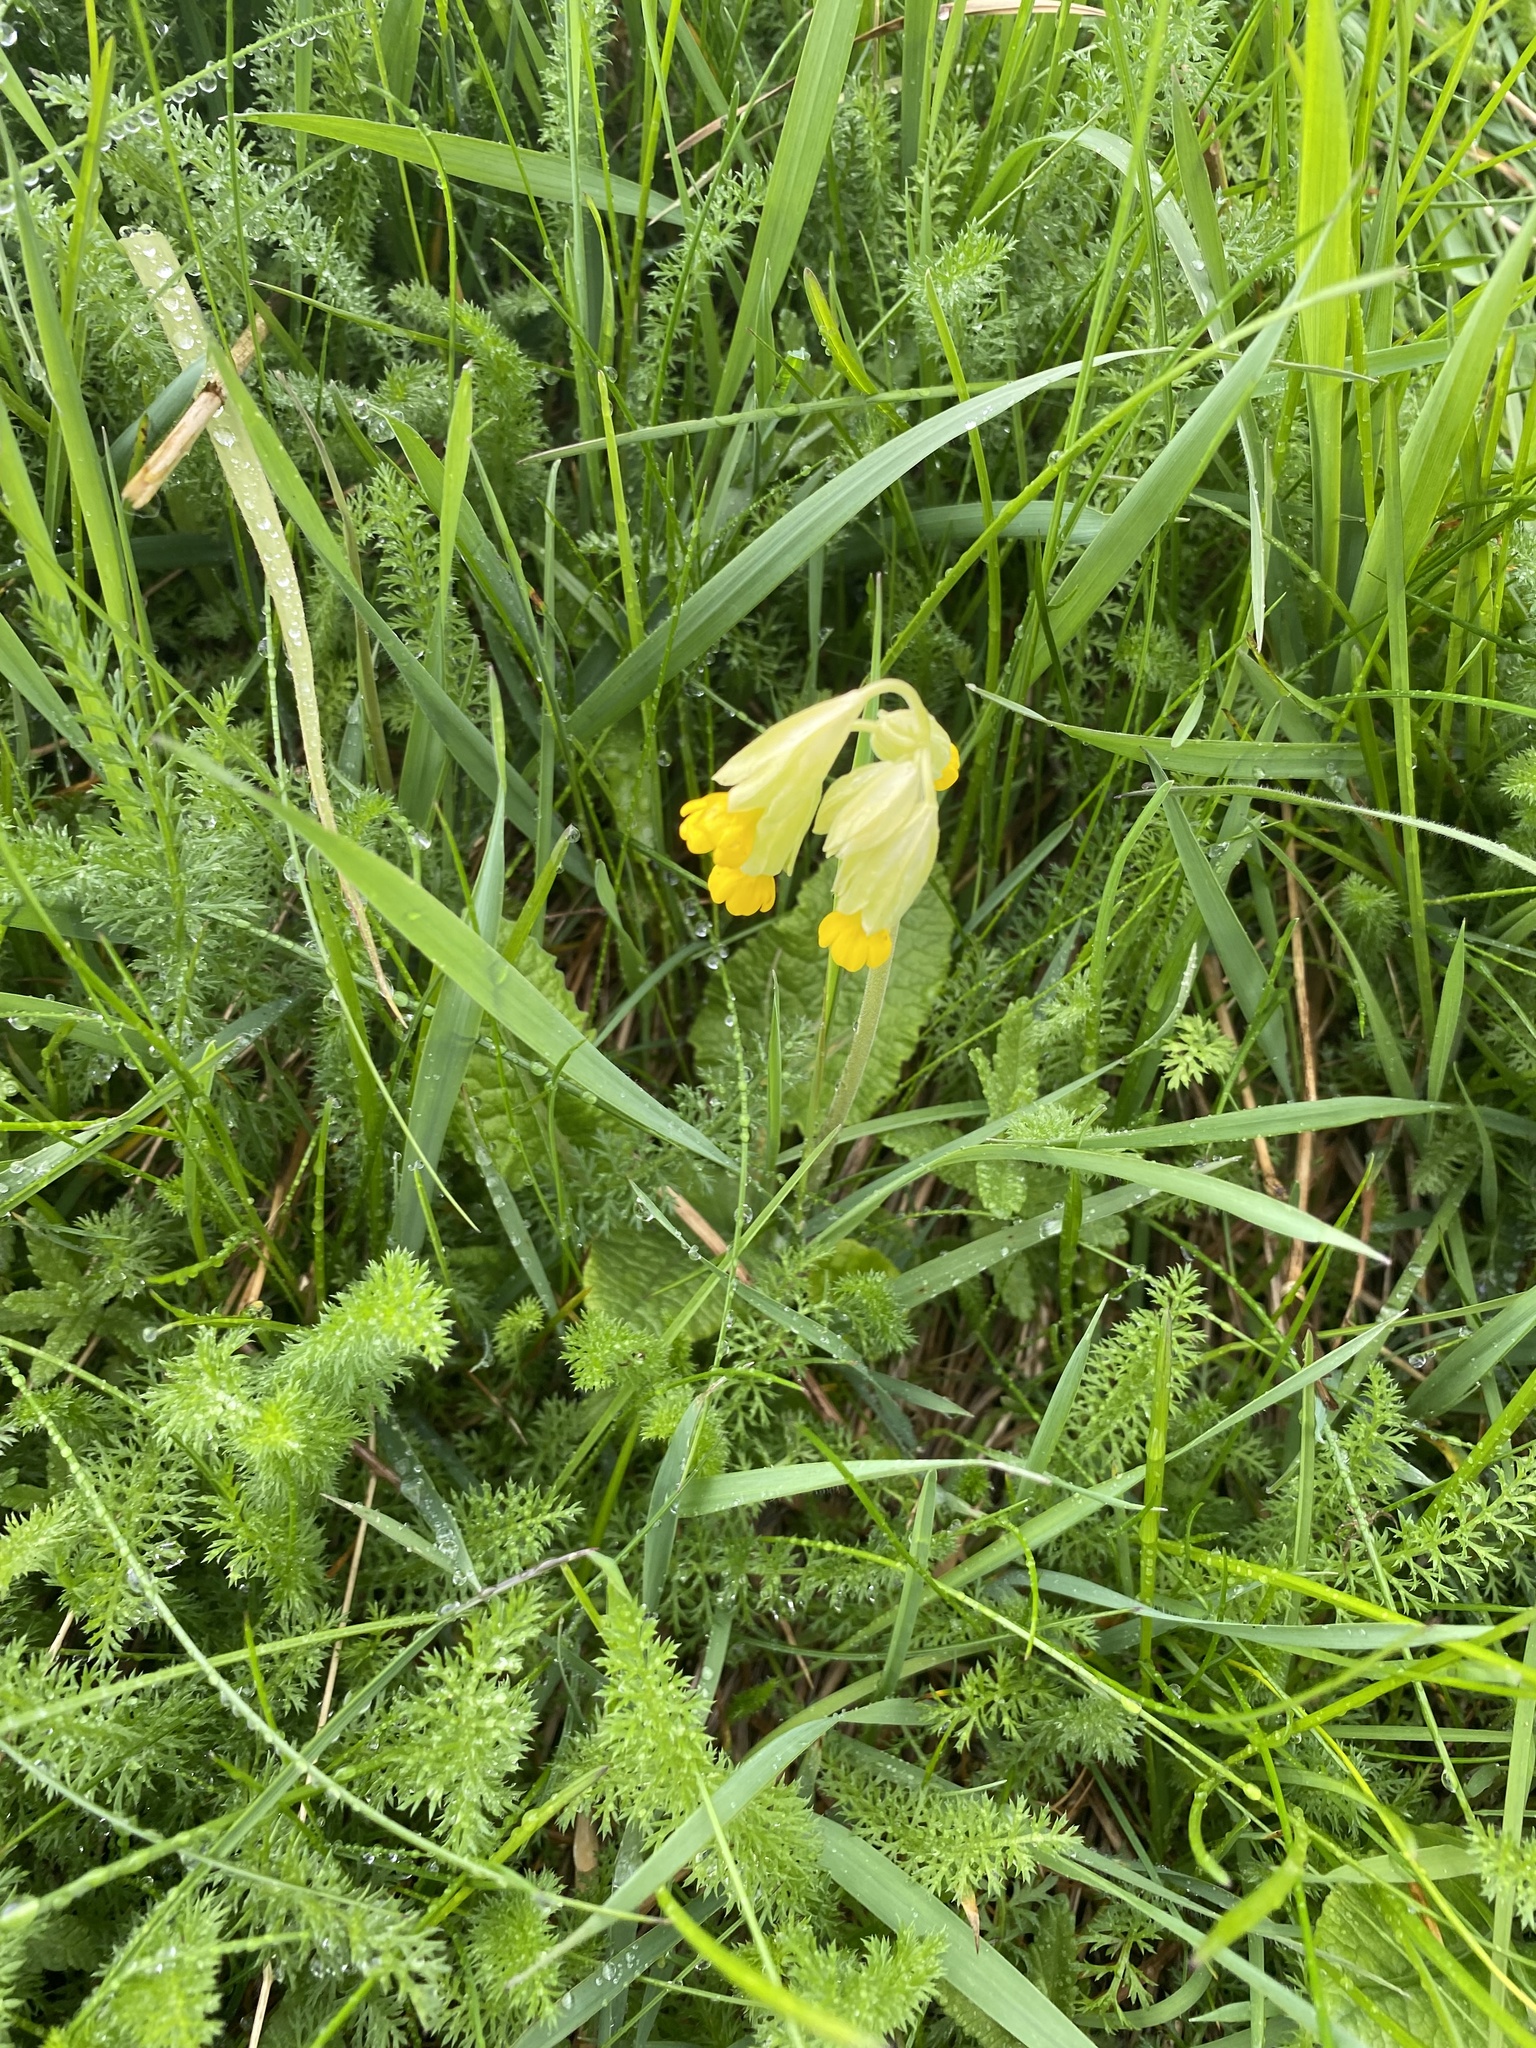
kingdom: Plantae
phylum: Tracheophyta
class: Magnoliopsida
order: Ericales
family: Primulaceae
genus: Primula
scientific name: Primula veris
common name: Cowslip
